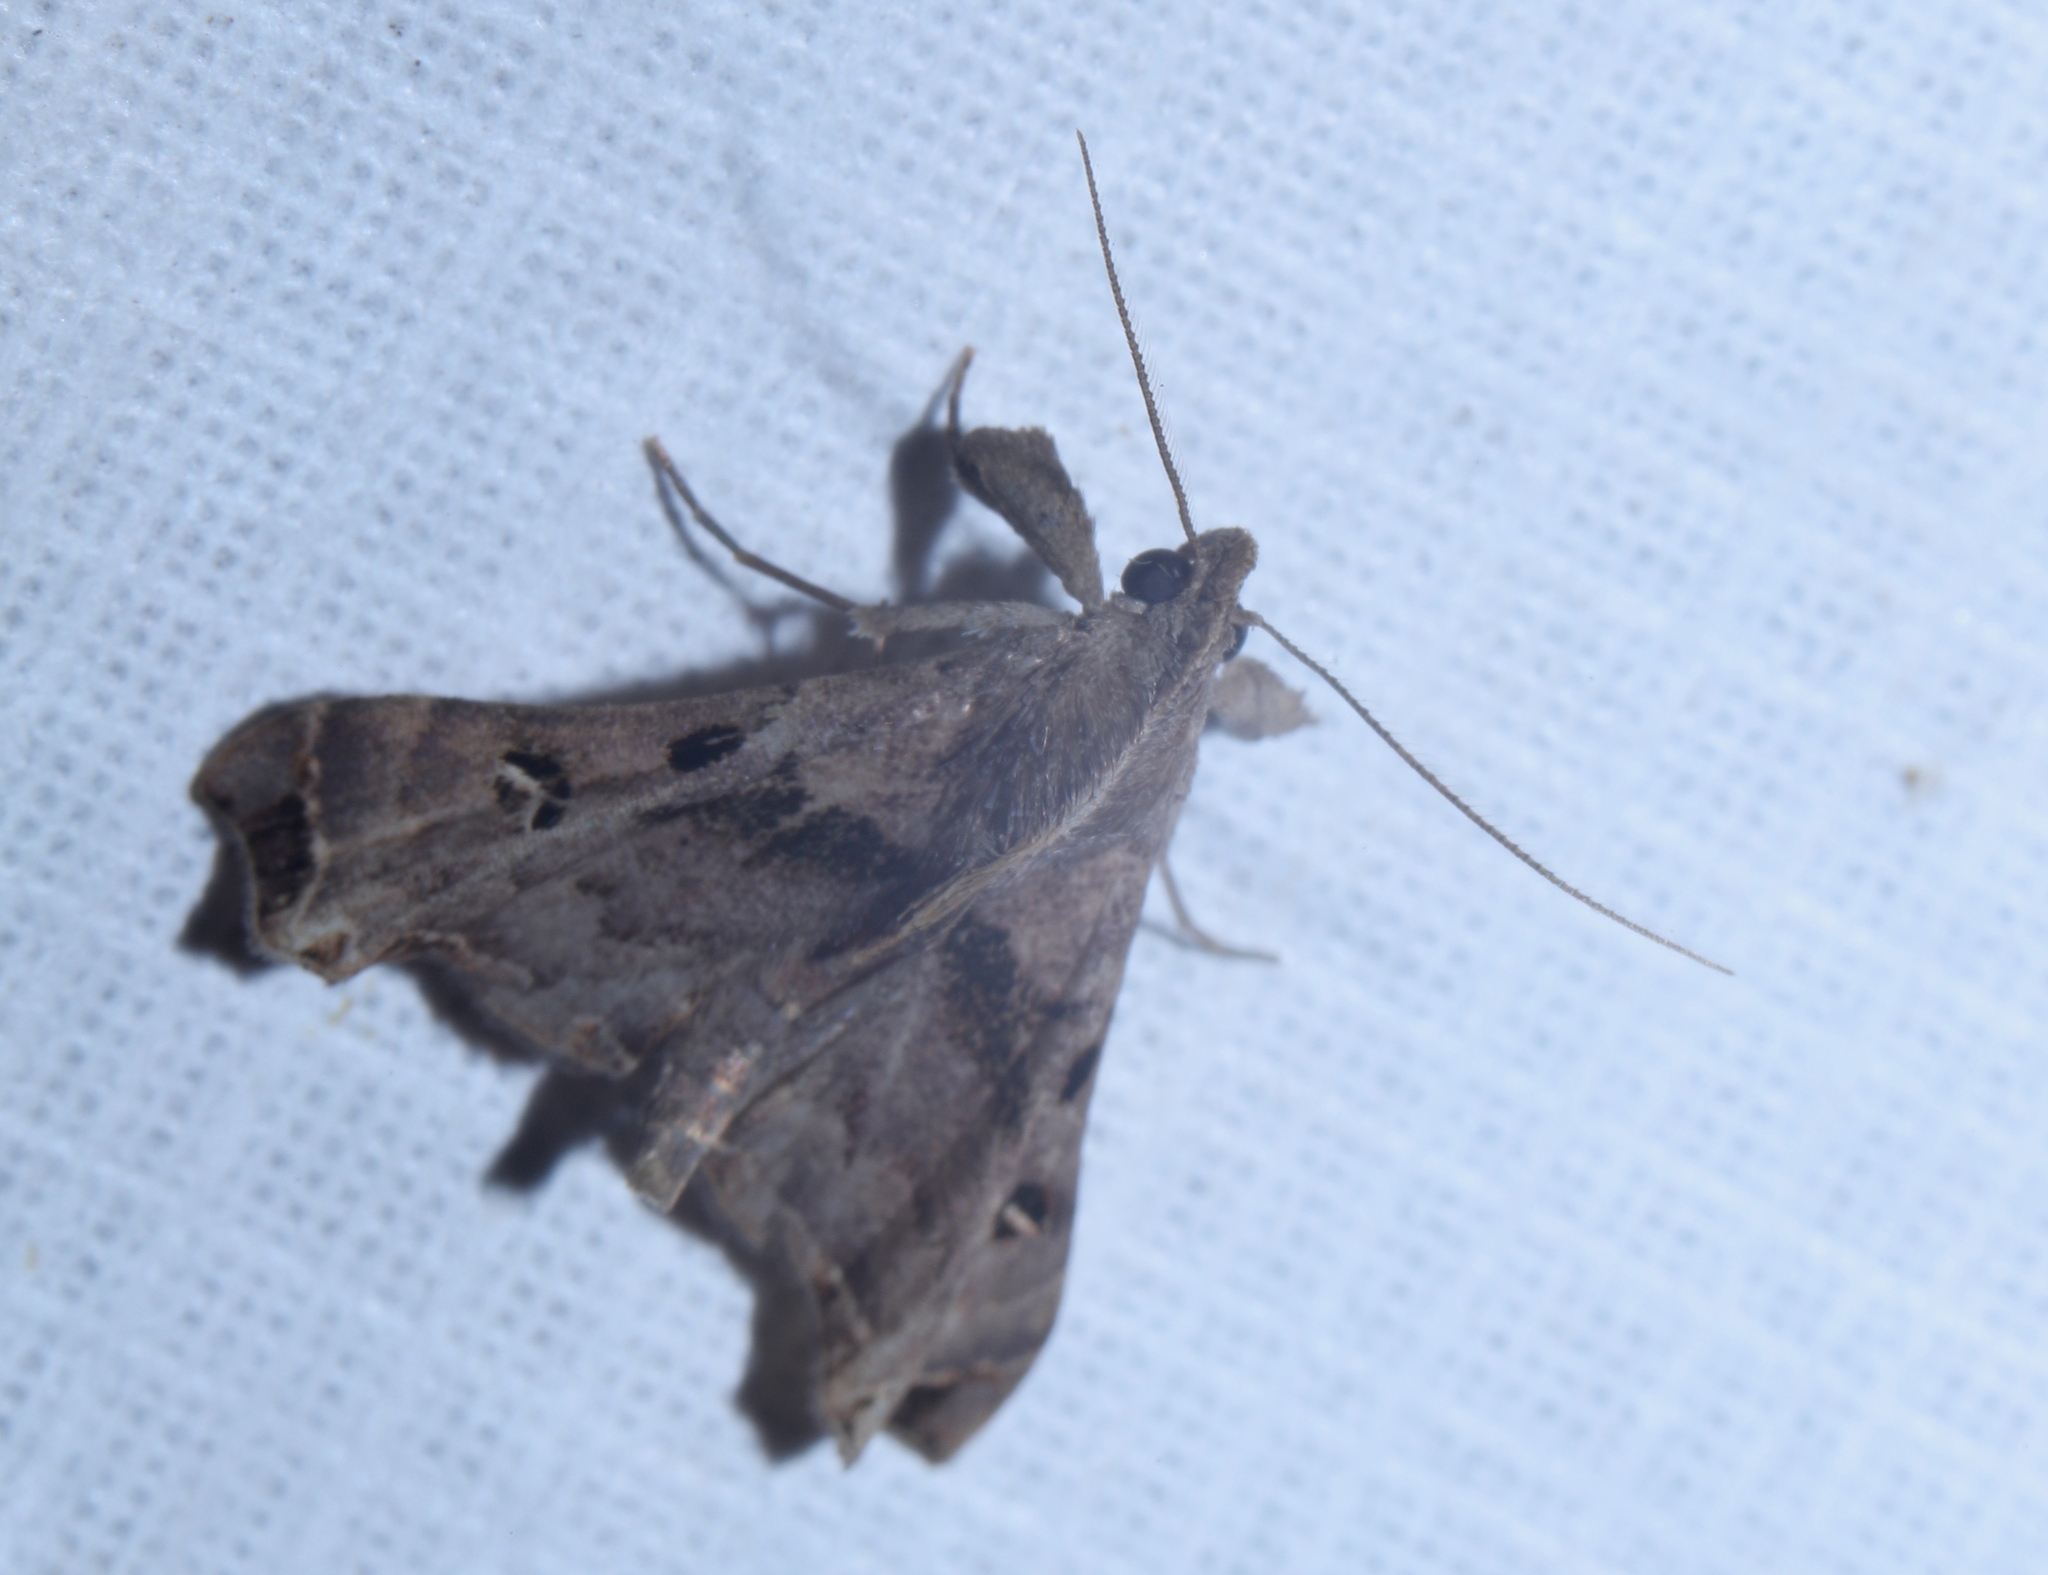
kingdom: Animalia
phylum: Arthropoda
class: Insecta
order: Lepidoptera
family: Erebidae
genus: Palthis
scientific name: Palthis asopialis
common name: Faint-spotted palthis moth
